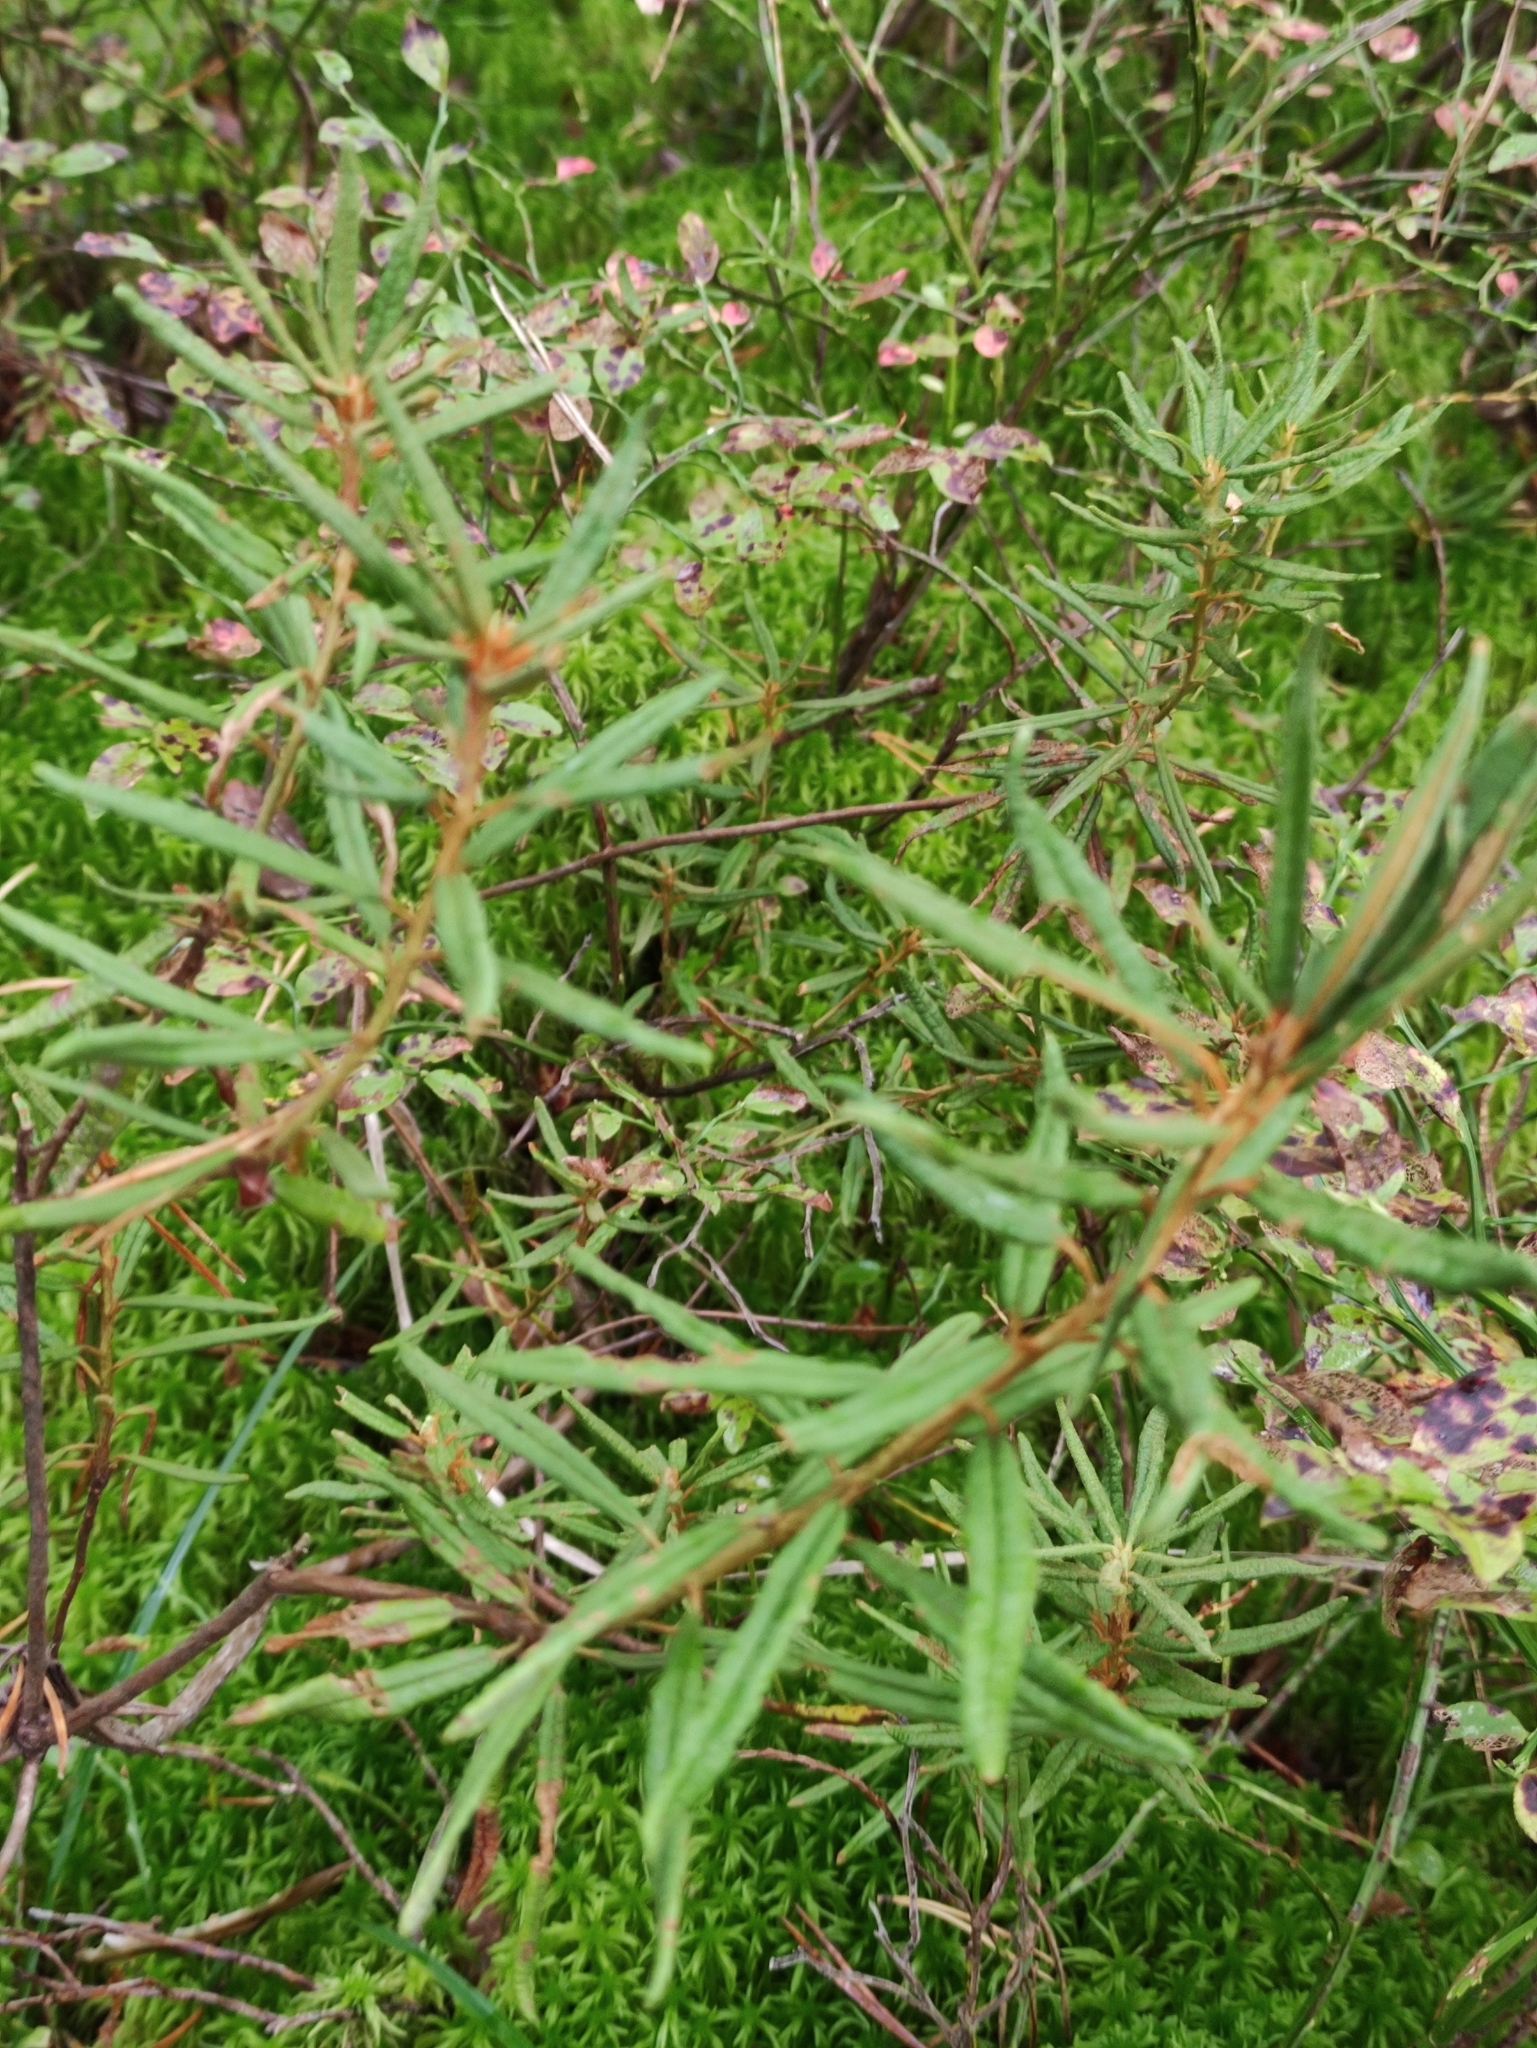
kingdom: Plantae
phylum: Tracheophyta
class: Magnoliopsida
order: Ericales
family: Ericaceae
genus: Rhododendron
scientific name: Rhododendron tomentosum
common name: Marsh labrador tea
